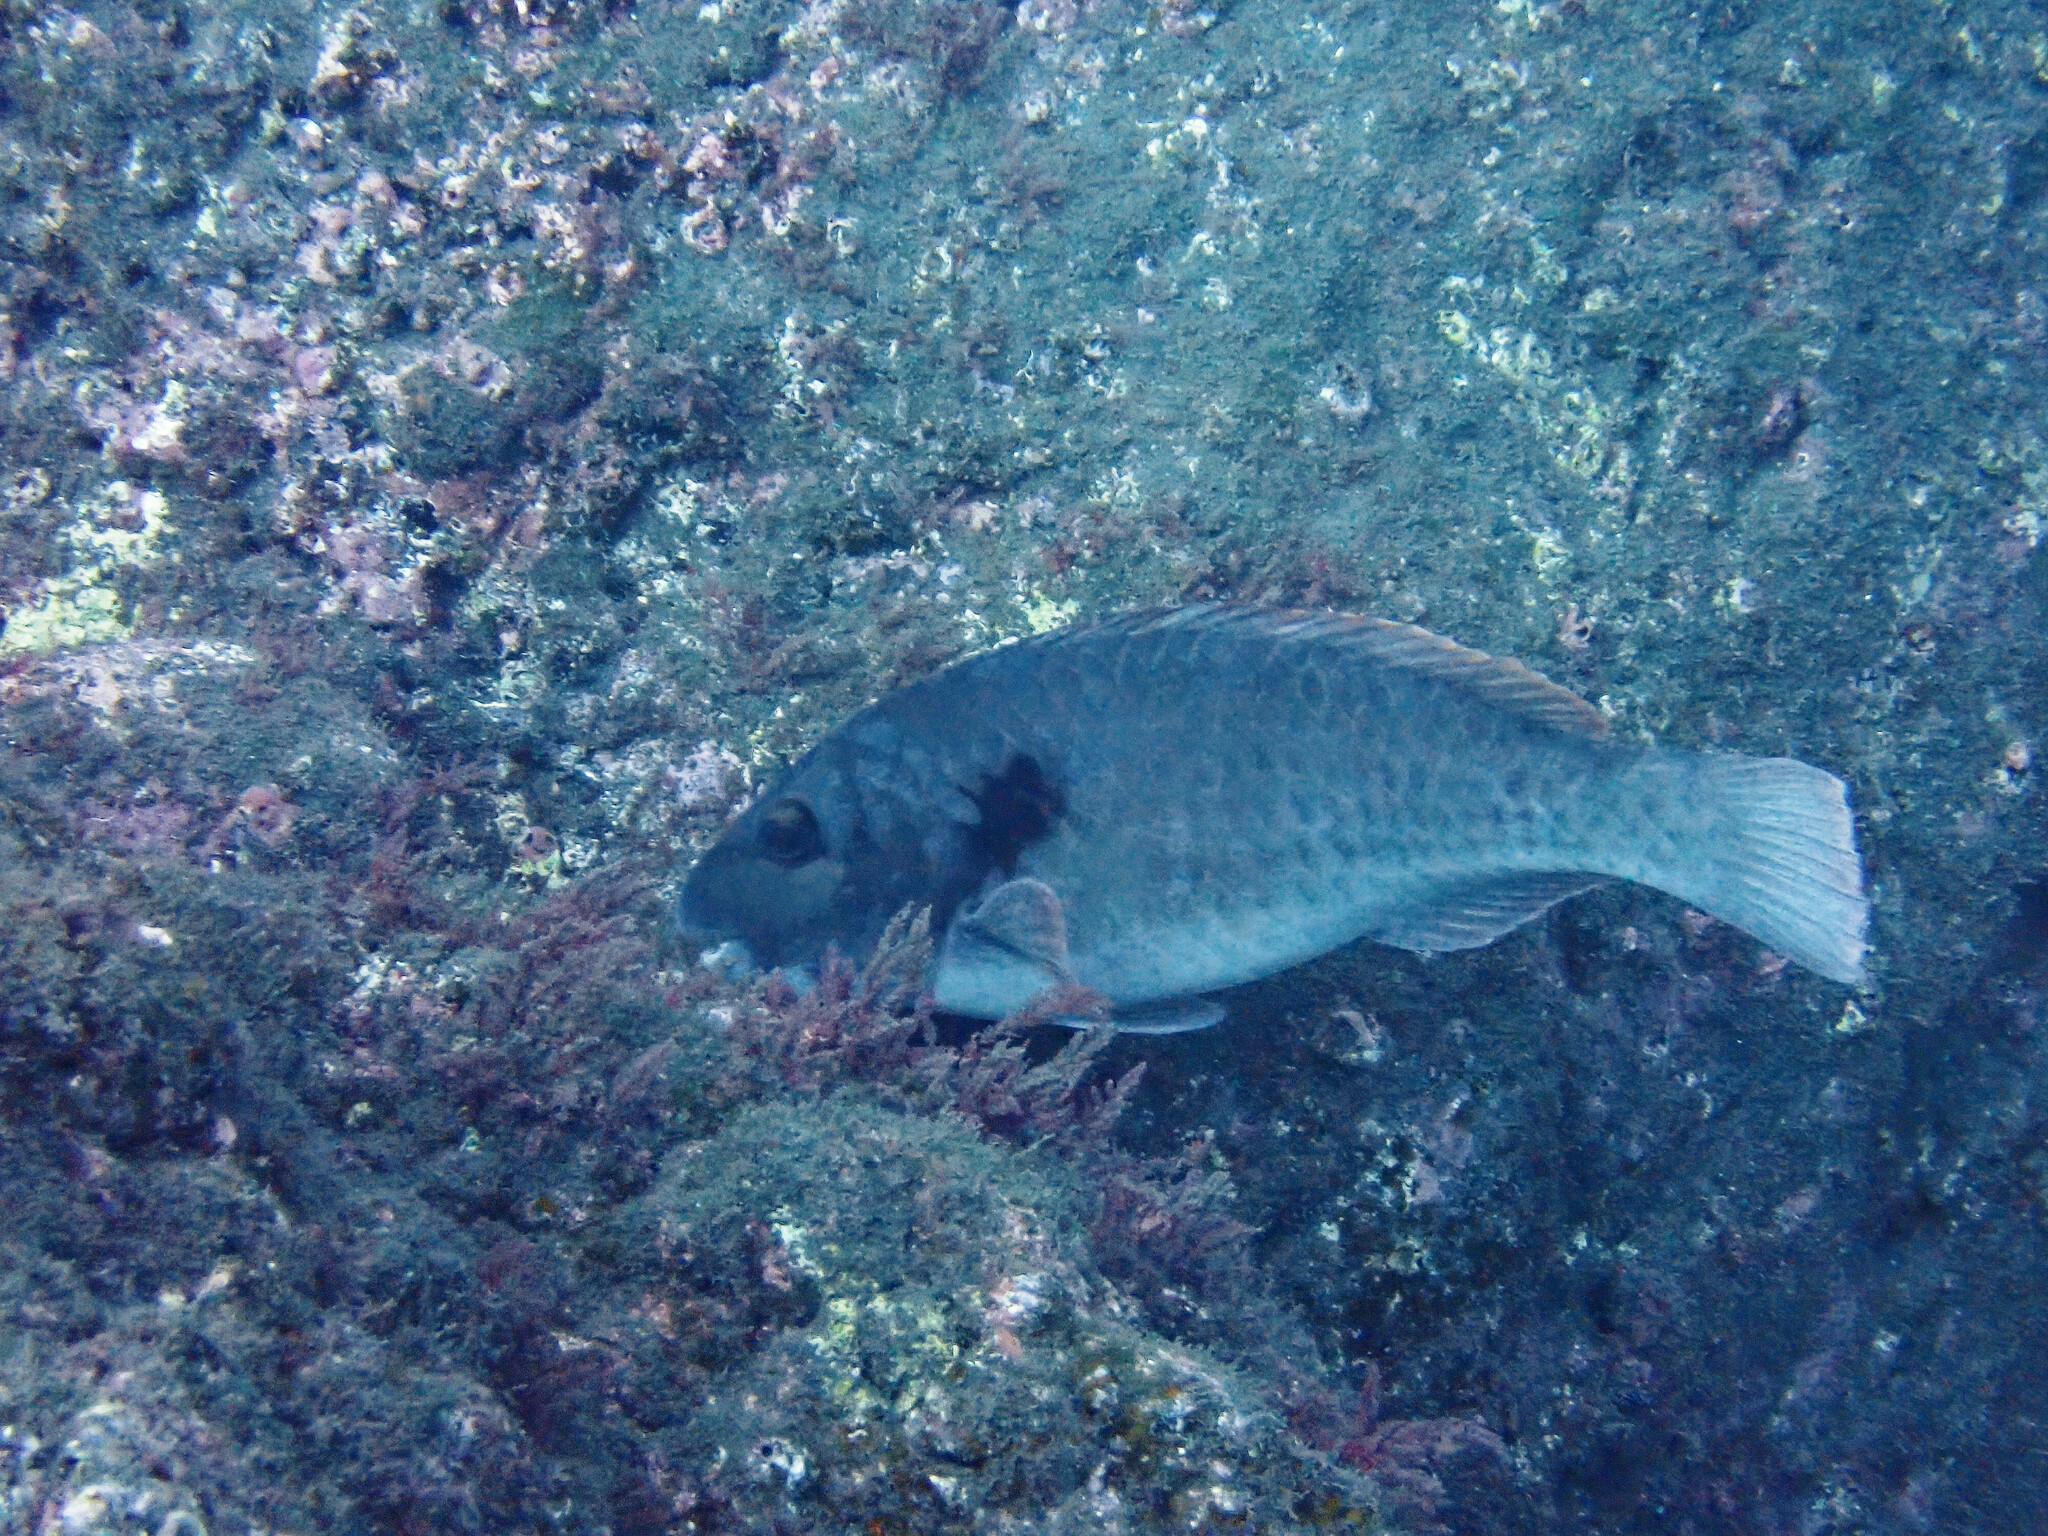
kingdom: Animalia
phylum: Chordata
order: Perciformes
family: Scaridae
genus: Sparisoma
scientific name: Sparisoma cretense
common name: Parrotfish
